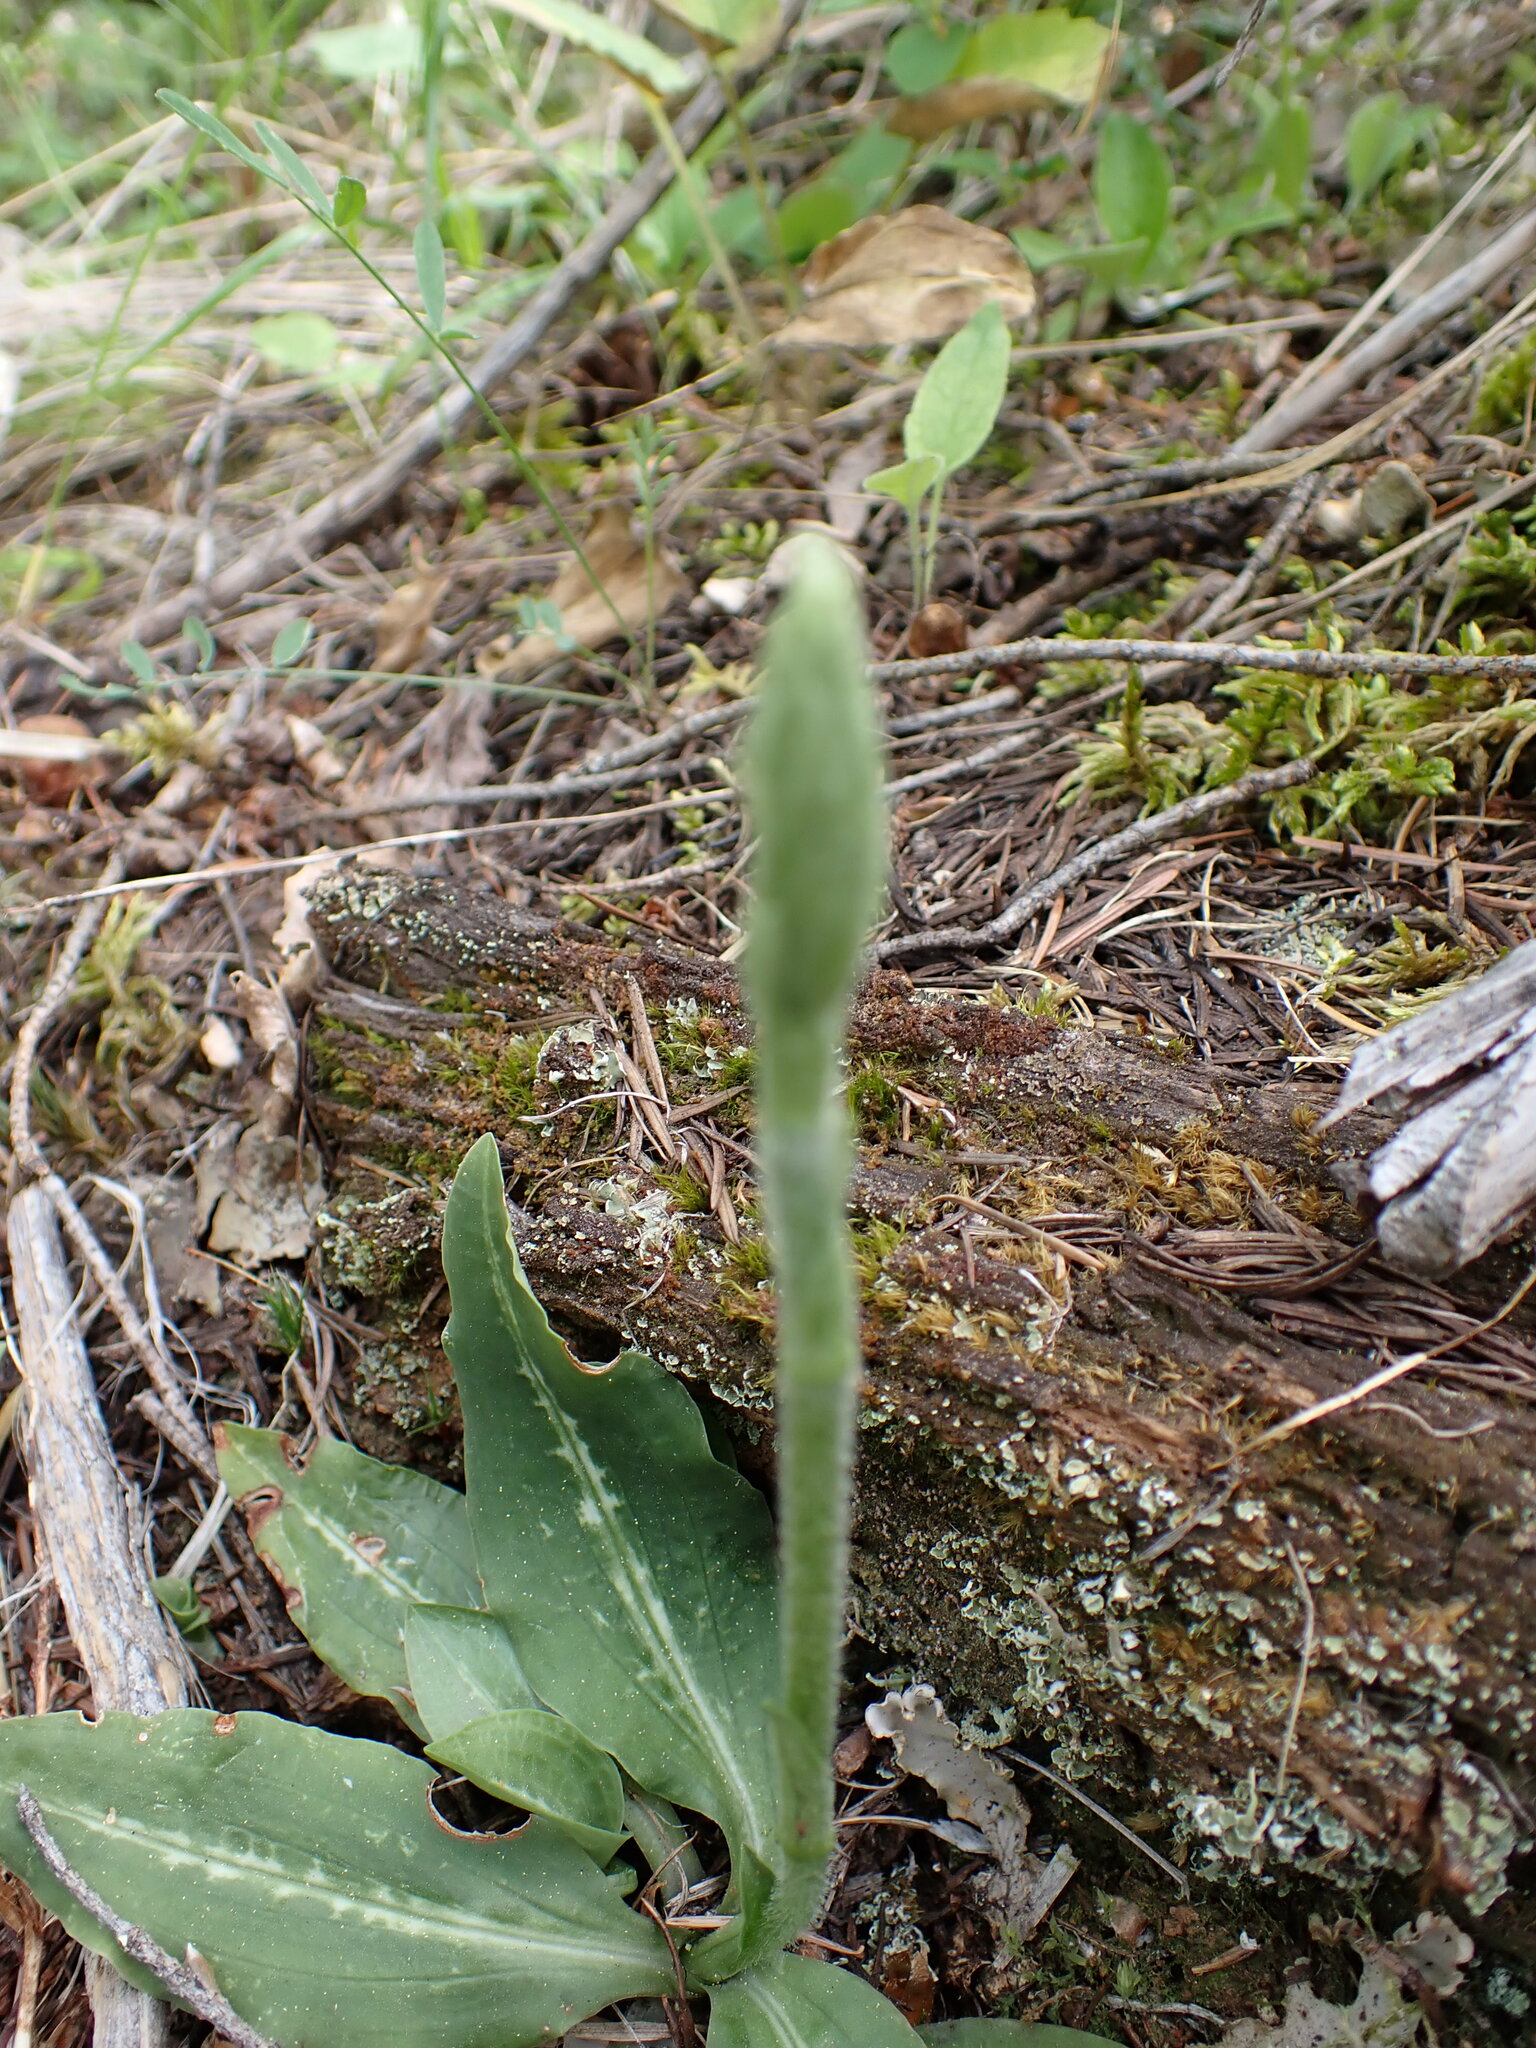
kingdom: Plantae
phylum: Tracheophyta
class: Liliopsida
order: Asparagales
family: Orchidaceae
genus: Goodyera
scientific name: Goodyera oblongifolia
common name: Giant rattlesnake-plantain
